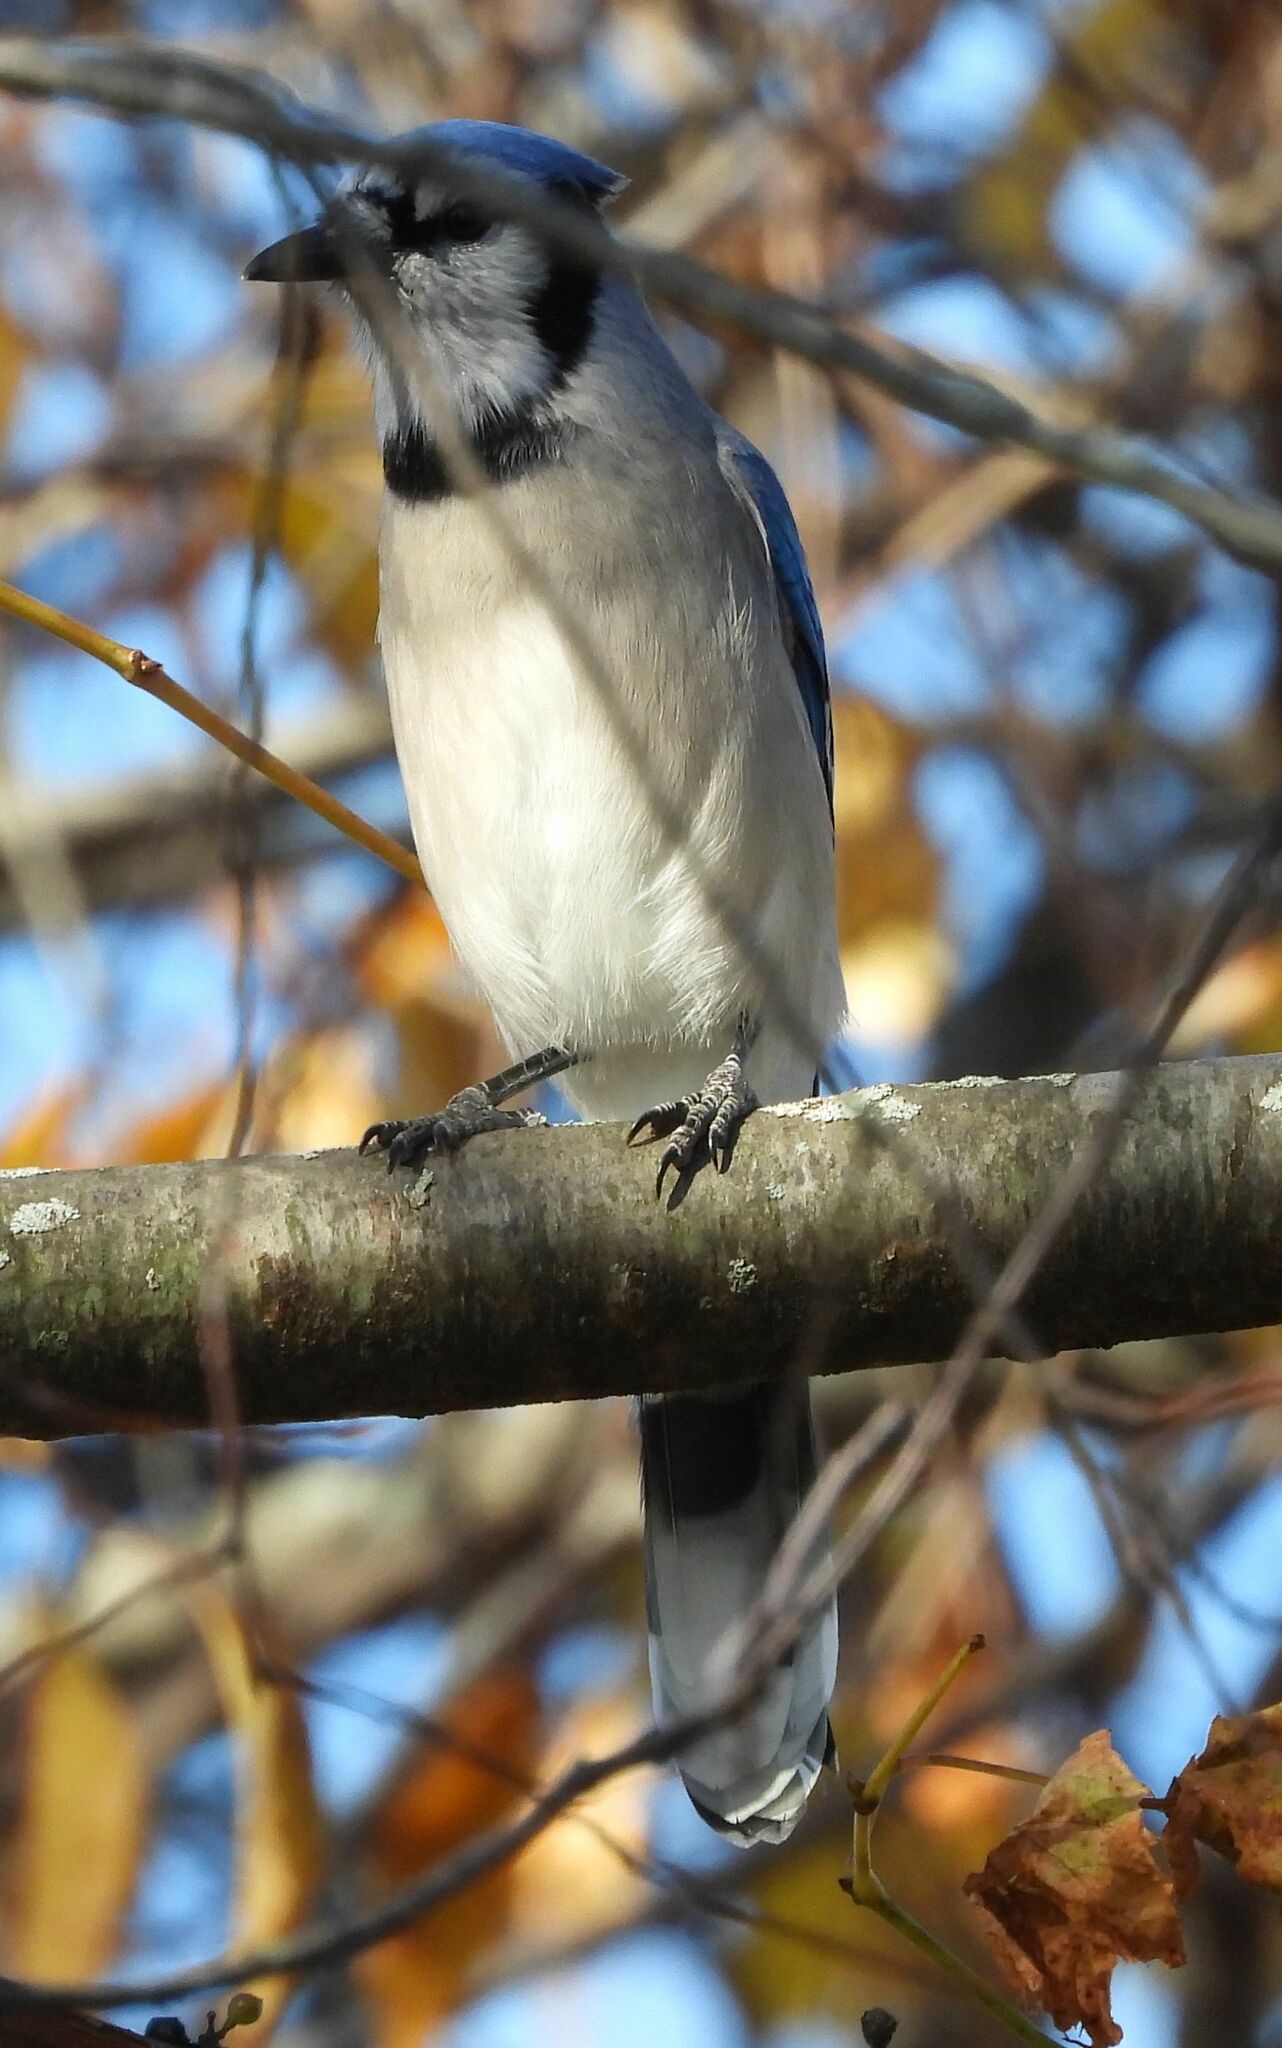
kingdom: Animalia
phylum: Chordata
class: Aves
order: Passeriformes
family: Corvidae
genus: Cyanocitta
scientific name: Cyanocitta cristata
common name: Blue jay
